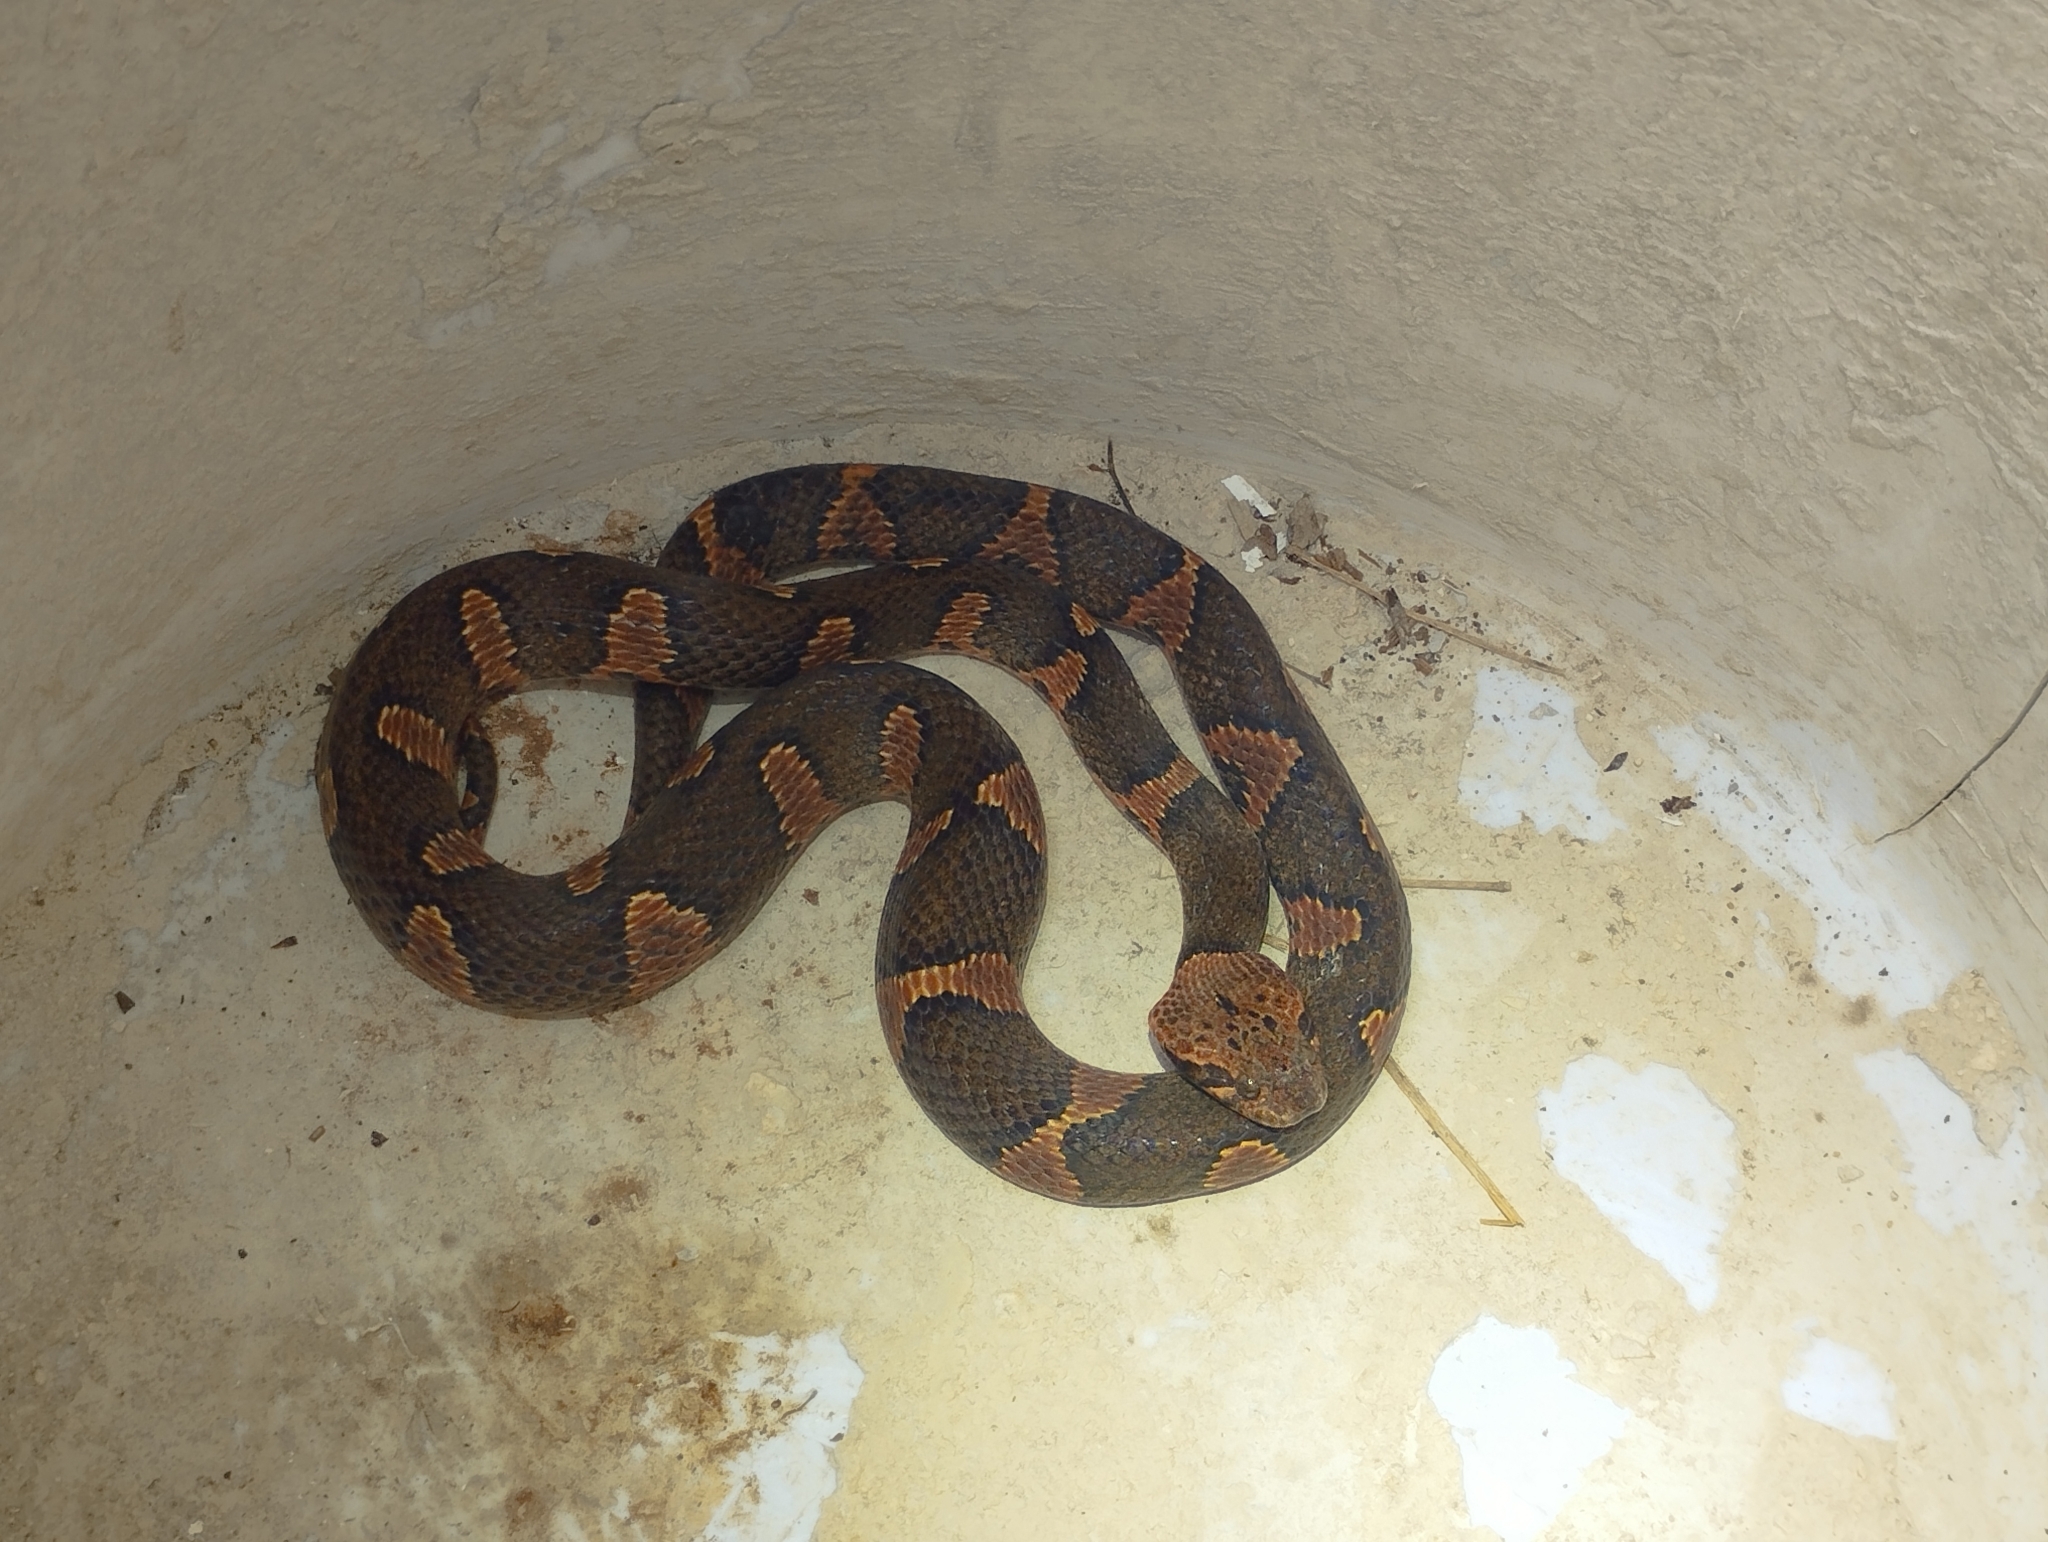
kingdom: Animalia
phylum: Chordata
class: Squamata
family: Colubridae
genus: Leptodeira
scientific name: Leptodeira frenata
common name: Rainforest cat-eyed snake
